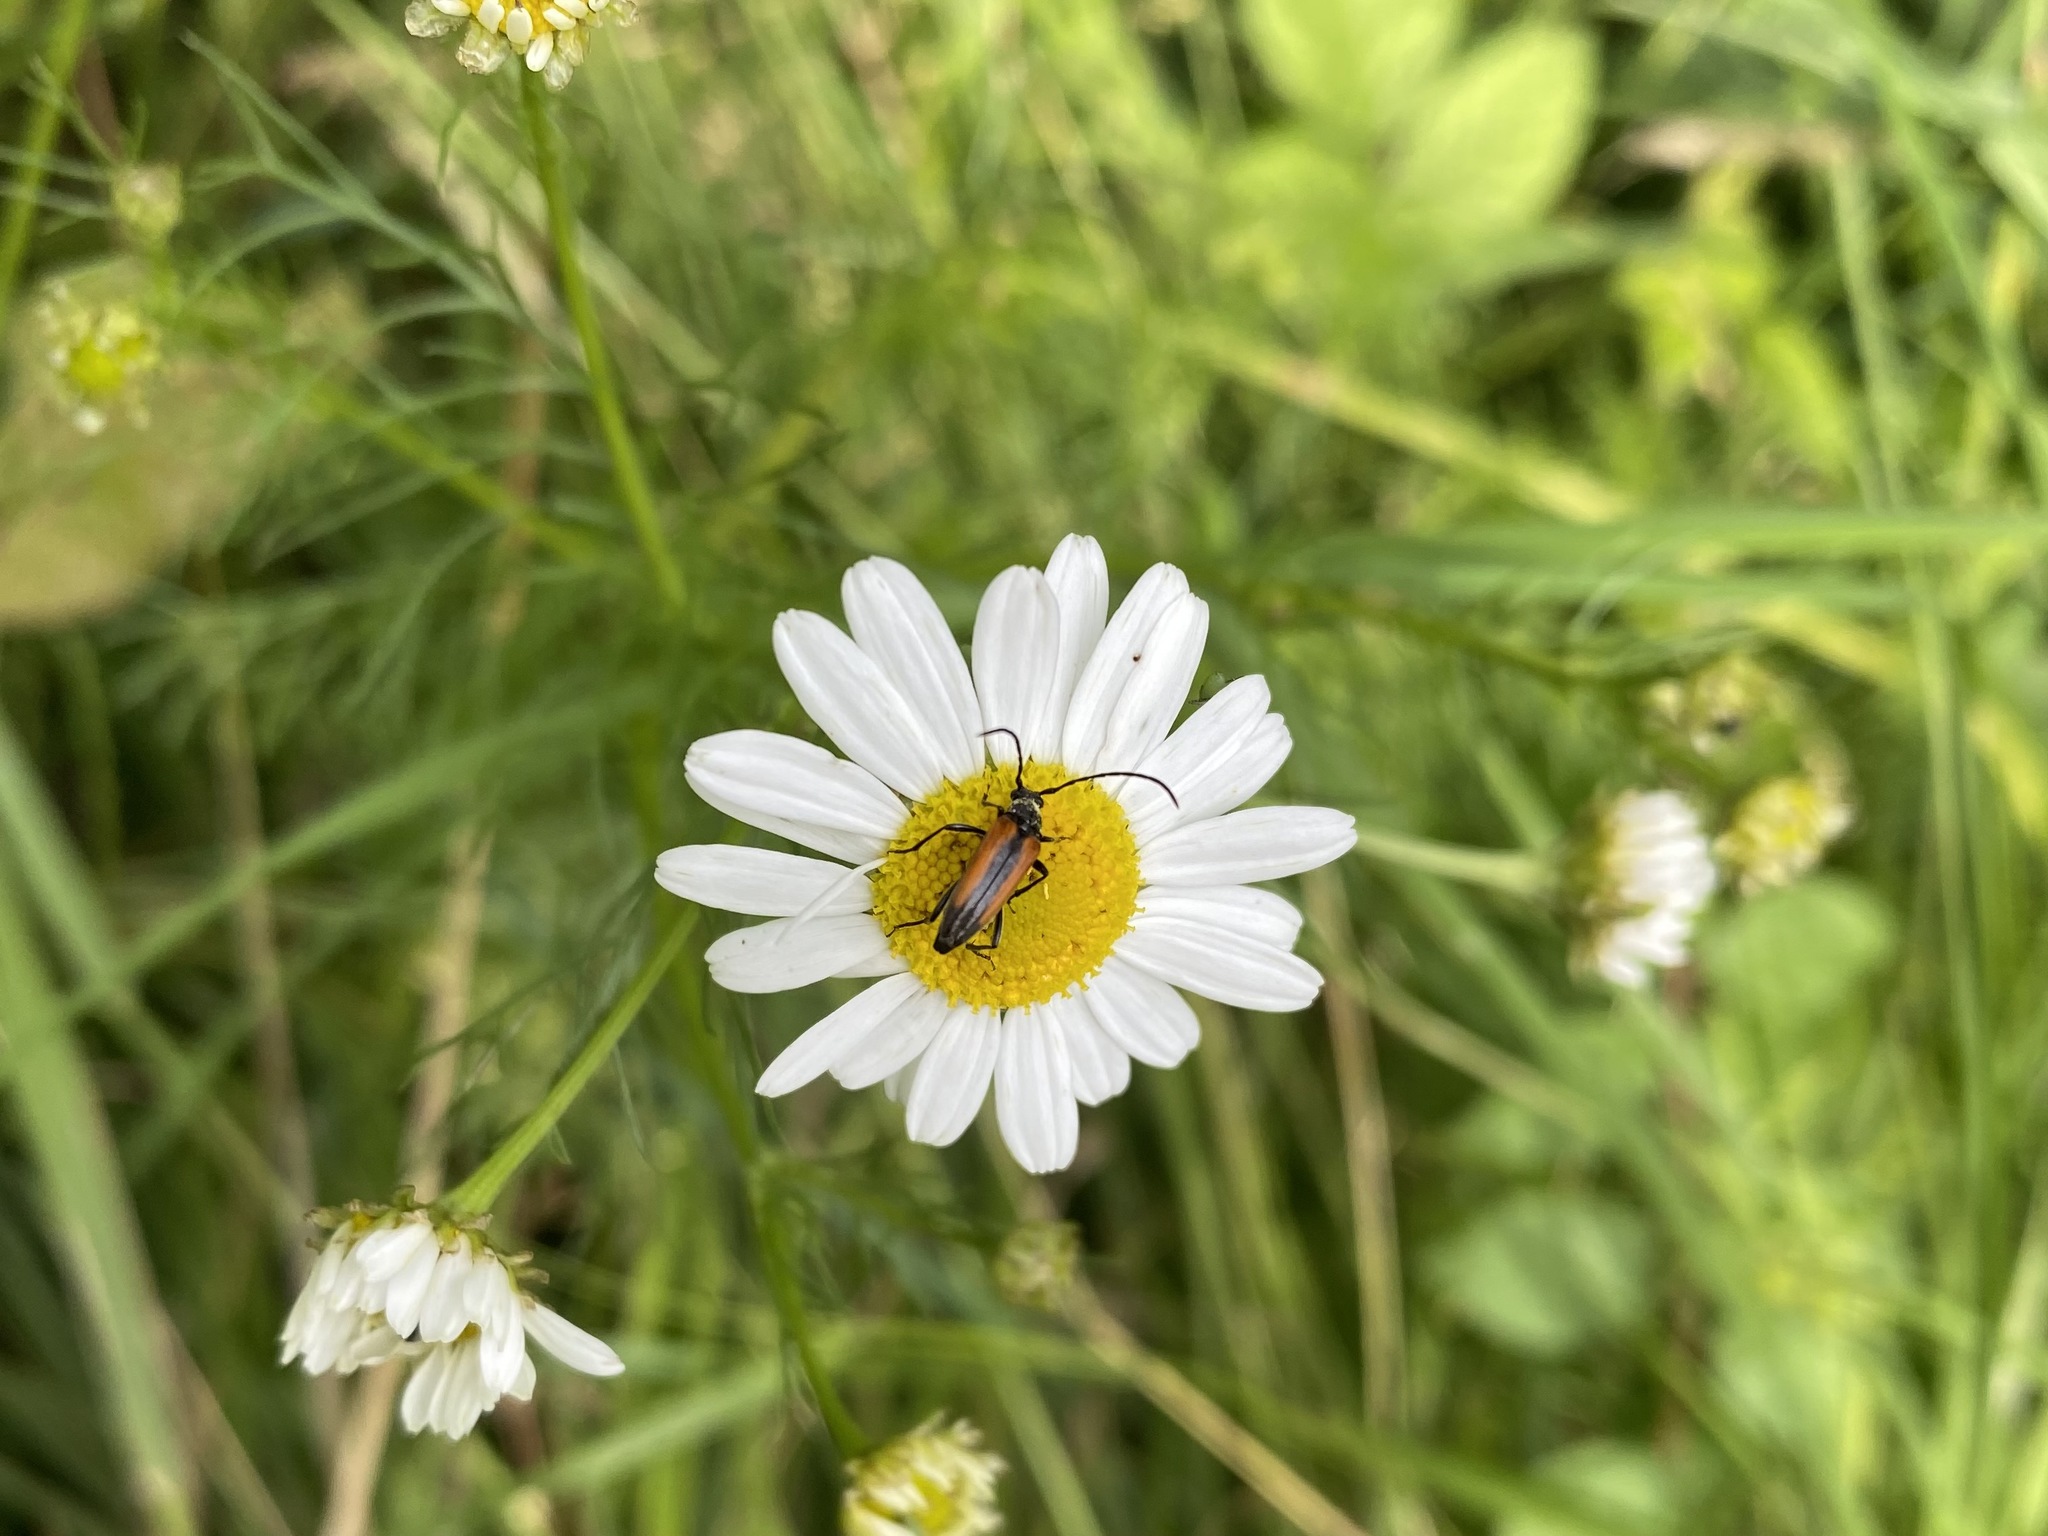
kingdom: Animalia
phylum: Arthropoda
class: Insecta
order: Coleoptera
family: Cerambycidae
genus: Stenurella
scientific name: Stenurella melanura
